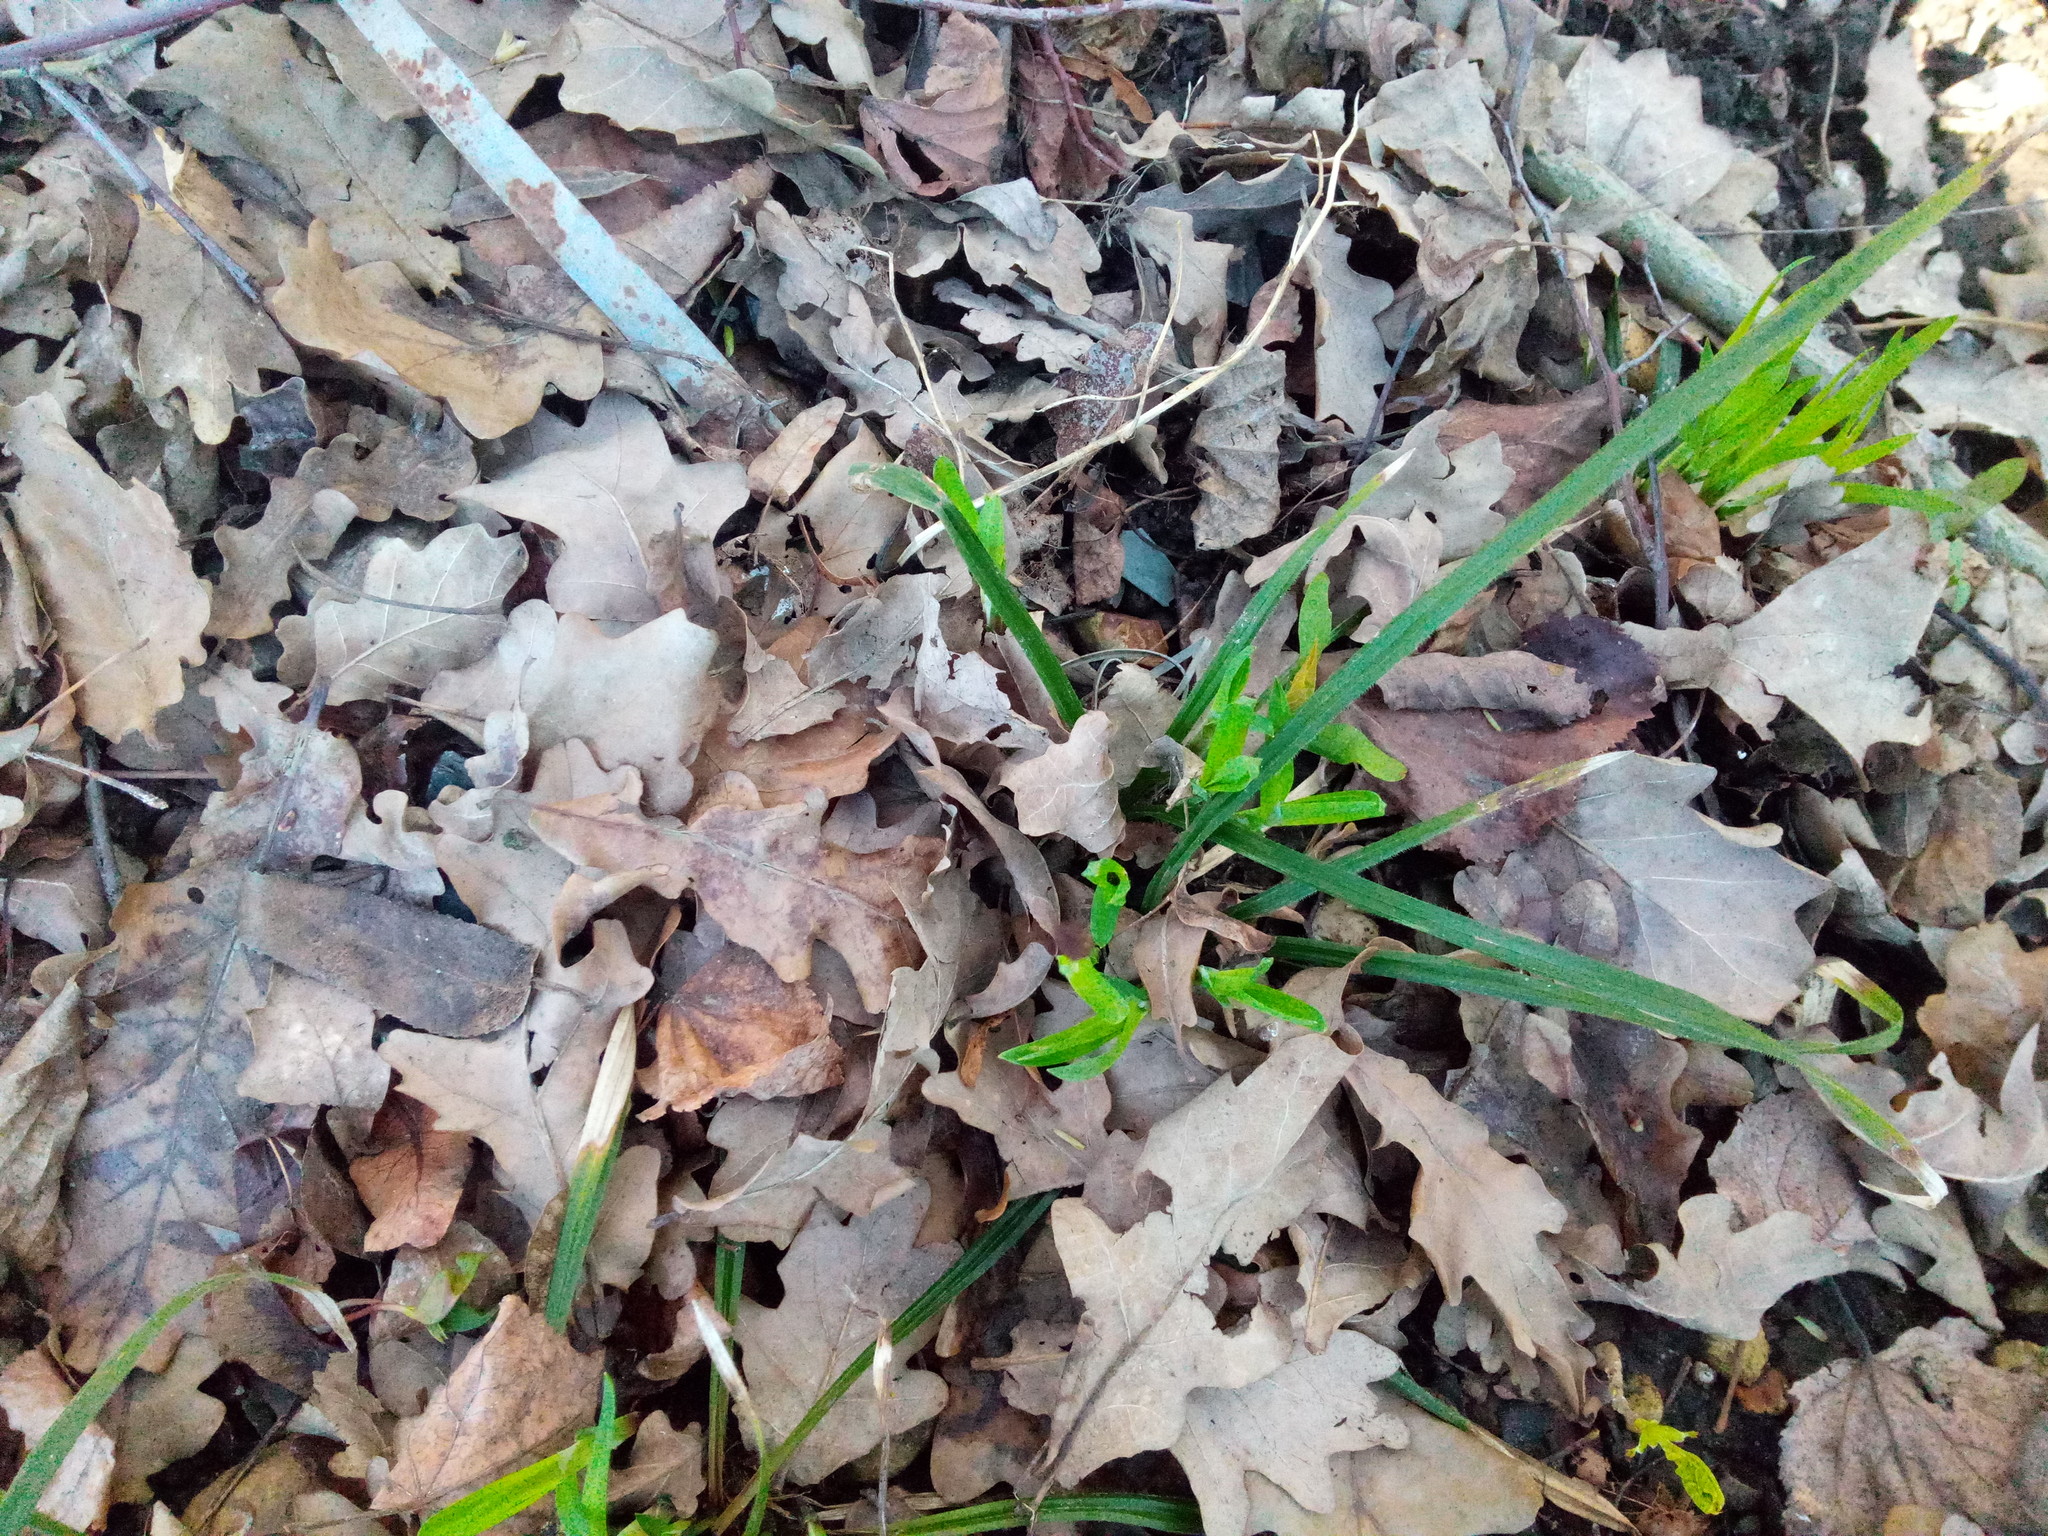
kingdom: Plantae
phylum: Tracheophyta
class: Liliopsida
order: Poales
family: Cyperaceae
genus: Carex
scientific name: Carex pilosa
